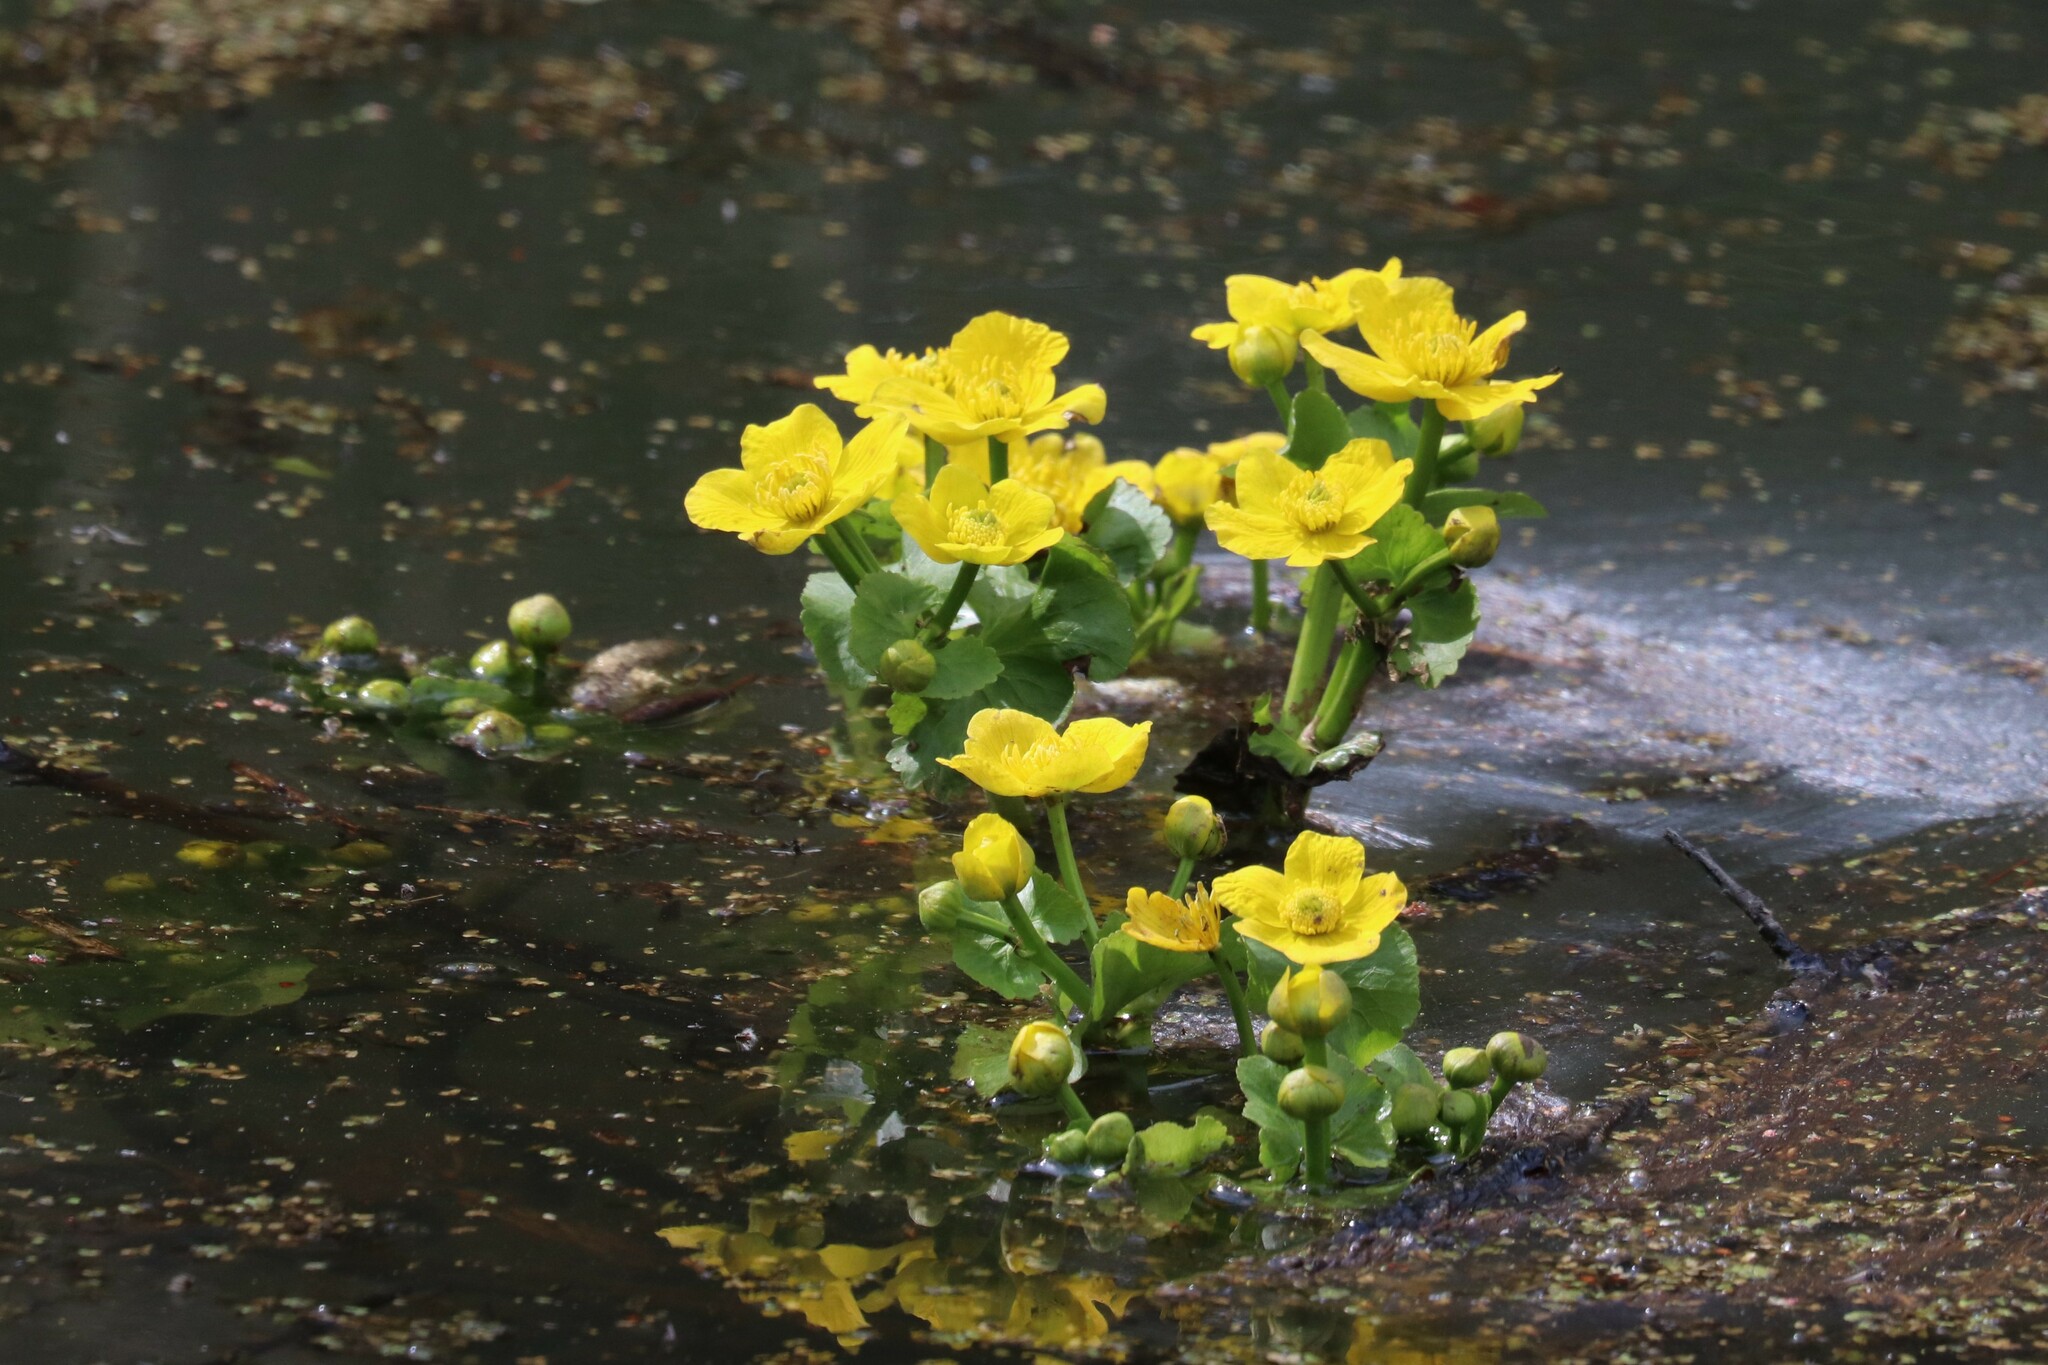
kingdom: Plantae
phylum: Tracheophyta
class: Magnoliopsida
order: Ranunculales
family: Ranunculaceae
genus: Caltha
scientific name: Caltha palustris
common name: Marsh marigold
